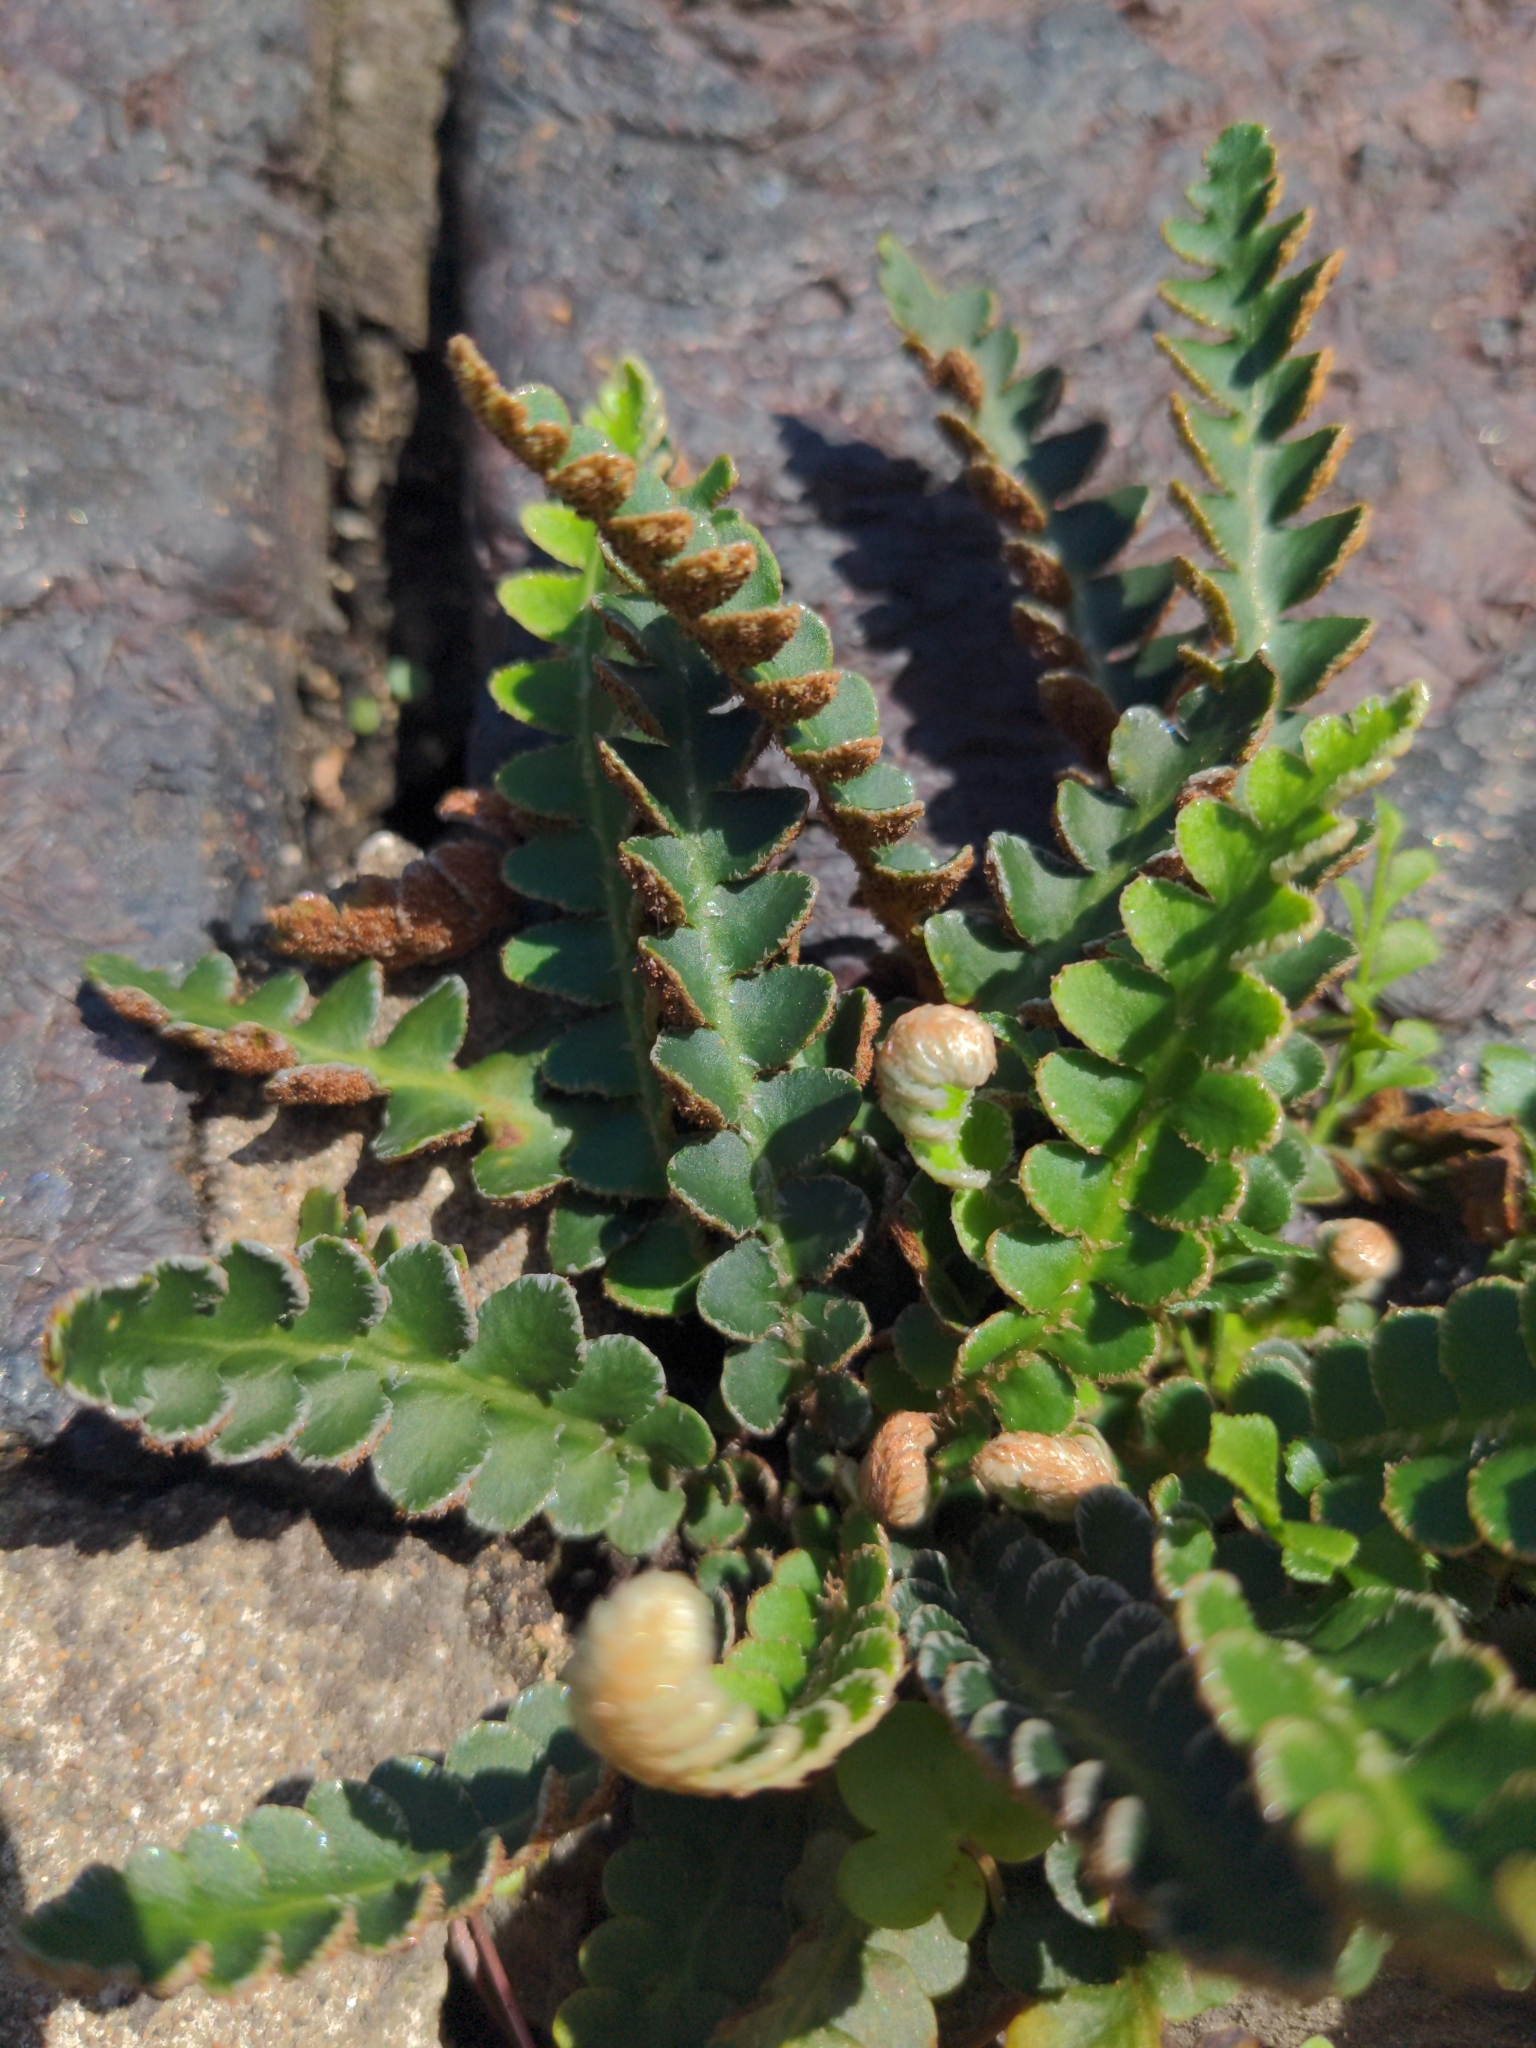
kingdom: Plantae
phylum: Tracheophyta
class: Polypodiopsida
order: Polypodiales
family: Aspleniaceae
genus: Asplenium
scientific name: Asplenium ceterach
